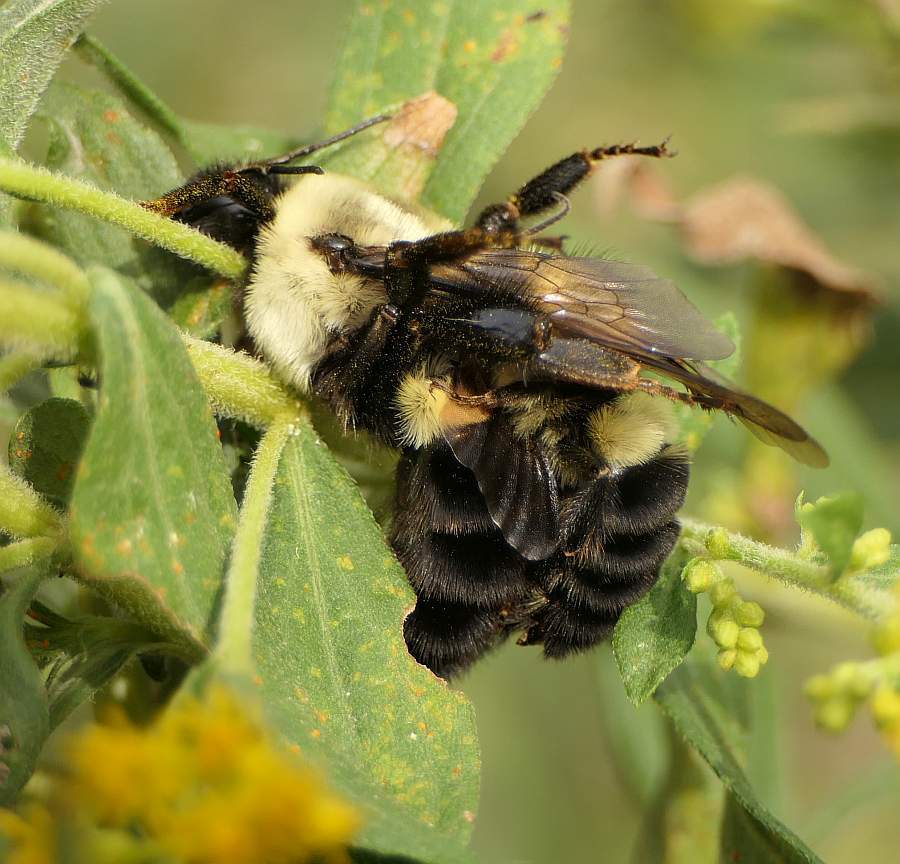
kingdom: Animalia
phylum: Arthropoda
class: Insecta
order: Hymenoptera
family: Apidae
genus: Bombus
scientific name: Bombus impatiens
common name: Common eastern bumble bee
